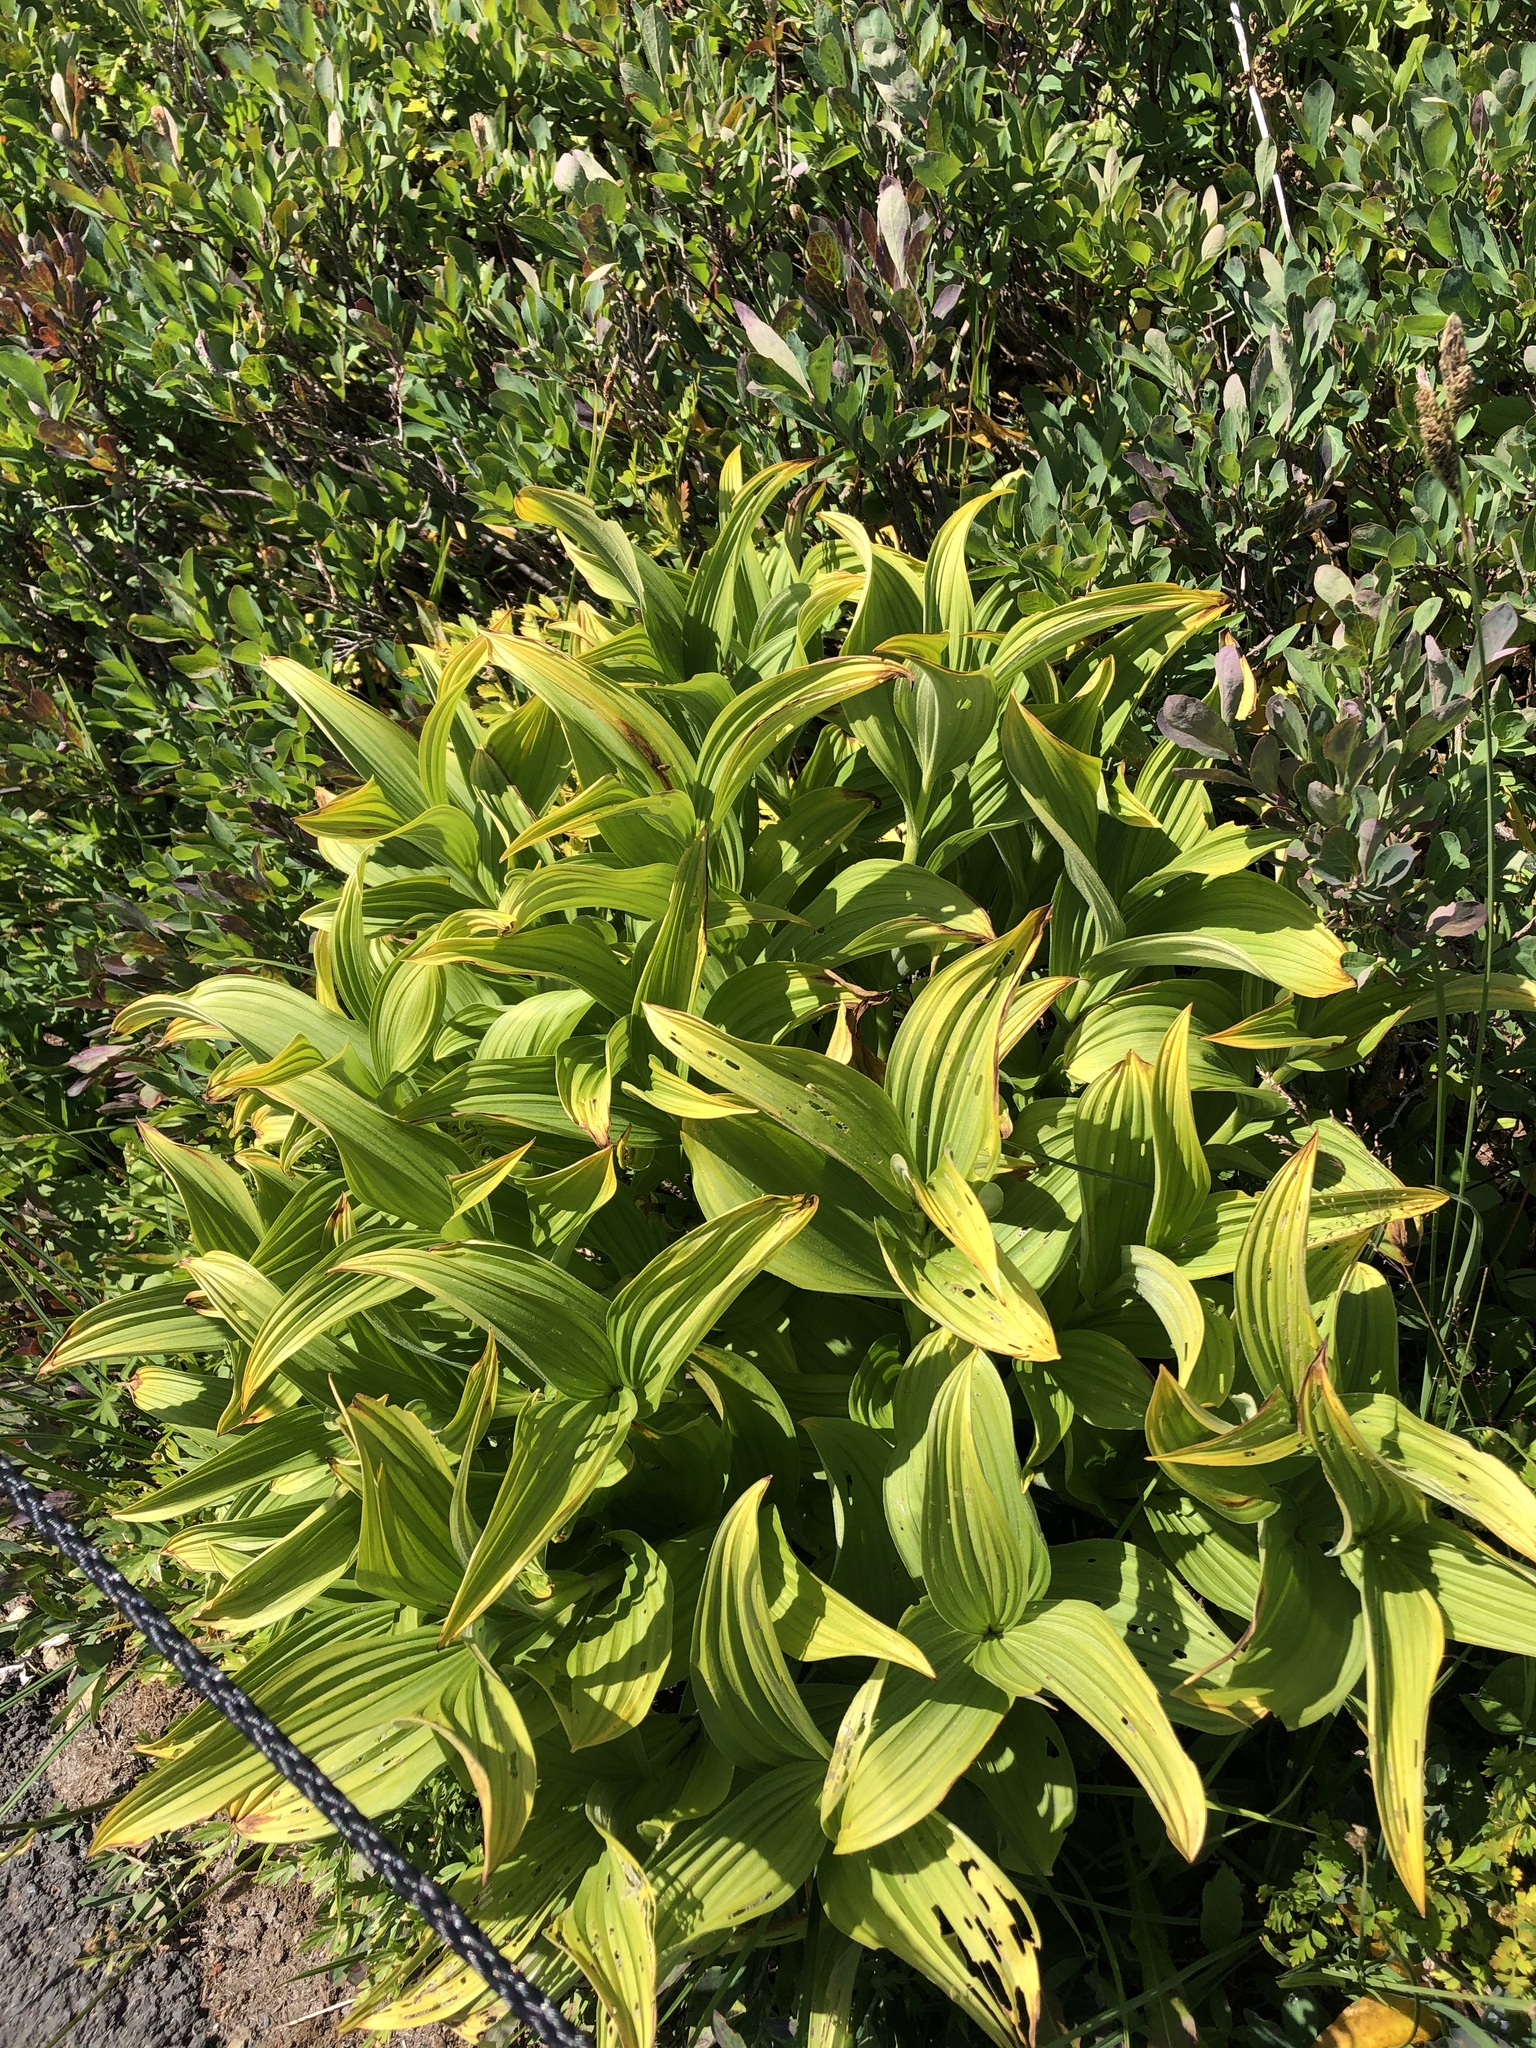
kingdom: Plantae
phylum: Tracheophyta
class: Liliopsida
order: Liliales
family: Melanthiaceae
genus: Veratrum
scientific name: Veratrum viride
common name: American false hellebore
